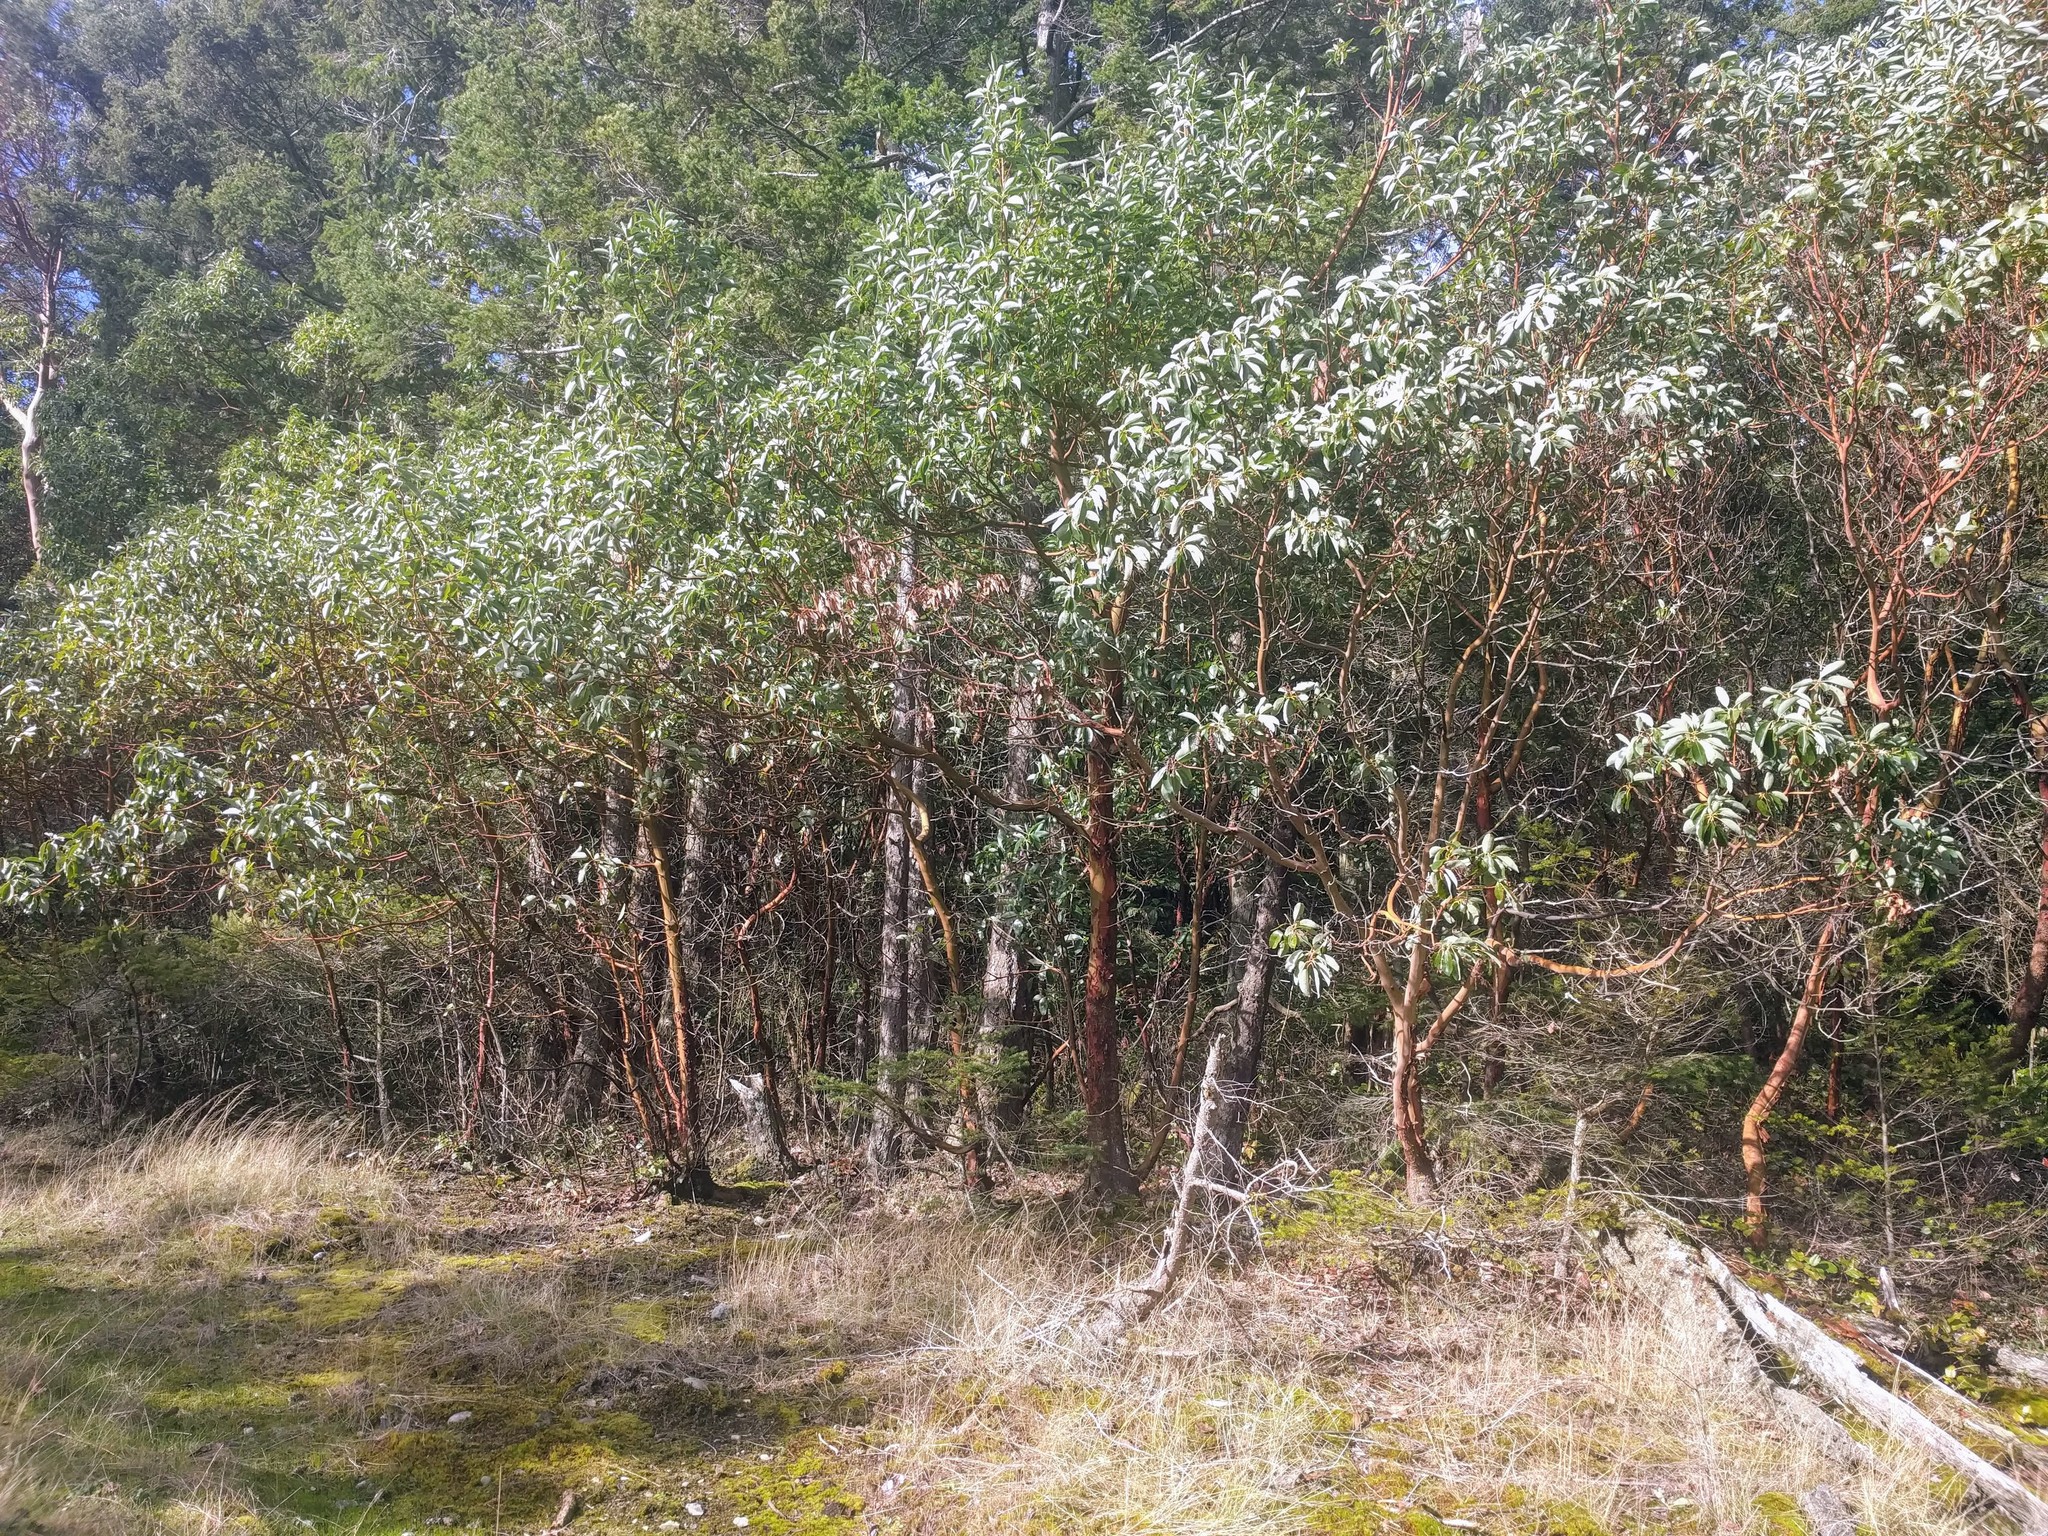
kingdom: Plantae
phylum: Tracheophyta
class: Magnoliopsida
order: Ericales
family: Ericaceae
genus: Arbutus
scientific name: Arbutus menziesii
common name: Pacific madrone
